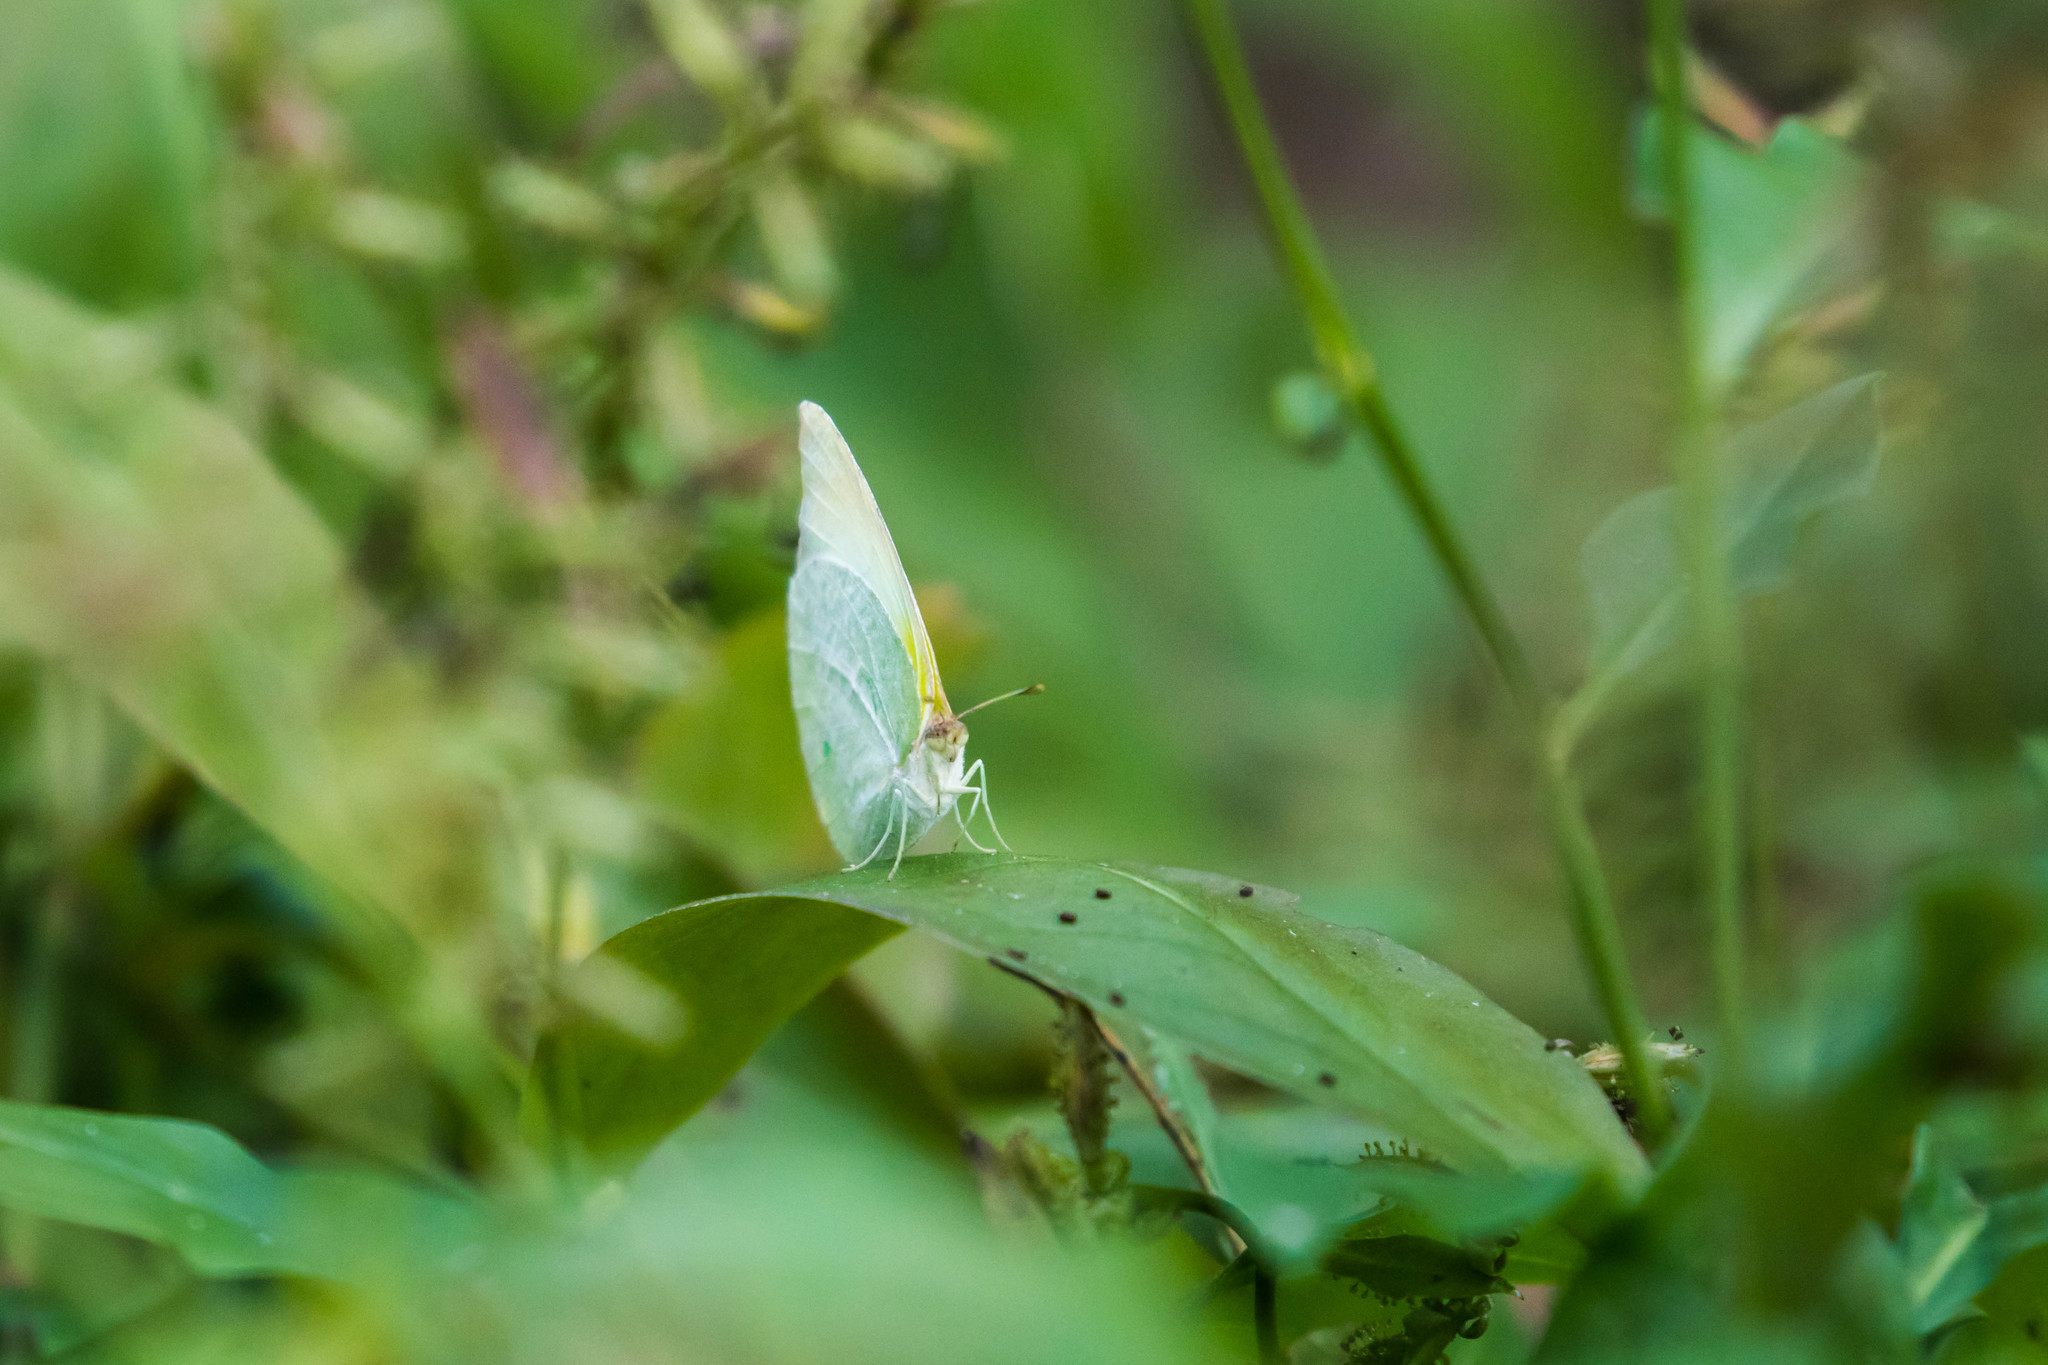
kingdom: Animalia
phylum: Arthropoda
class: Insecta
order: Lepidoptera
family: Pieridae
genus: Kricogonia
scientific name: Kricogonia lyside
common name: Guayacan sulphur,
